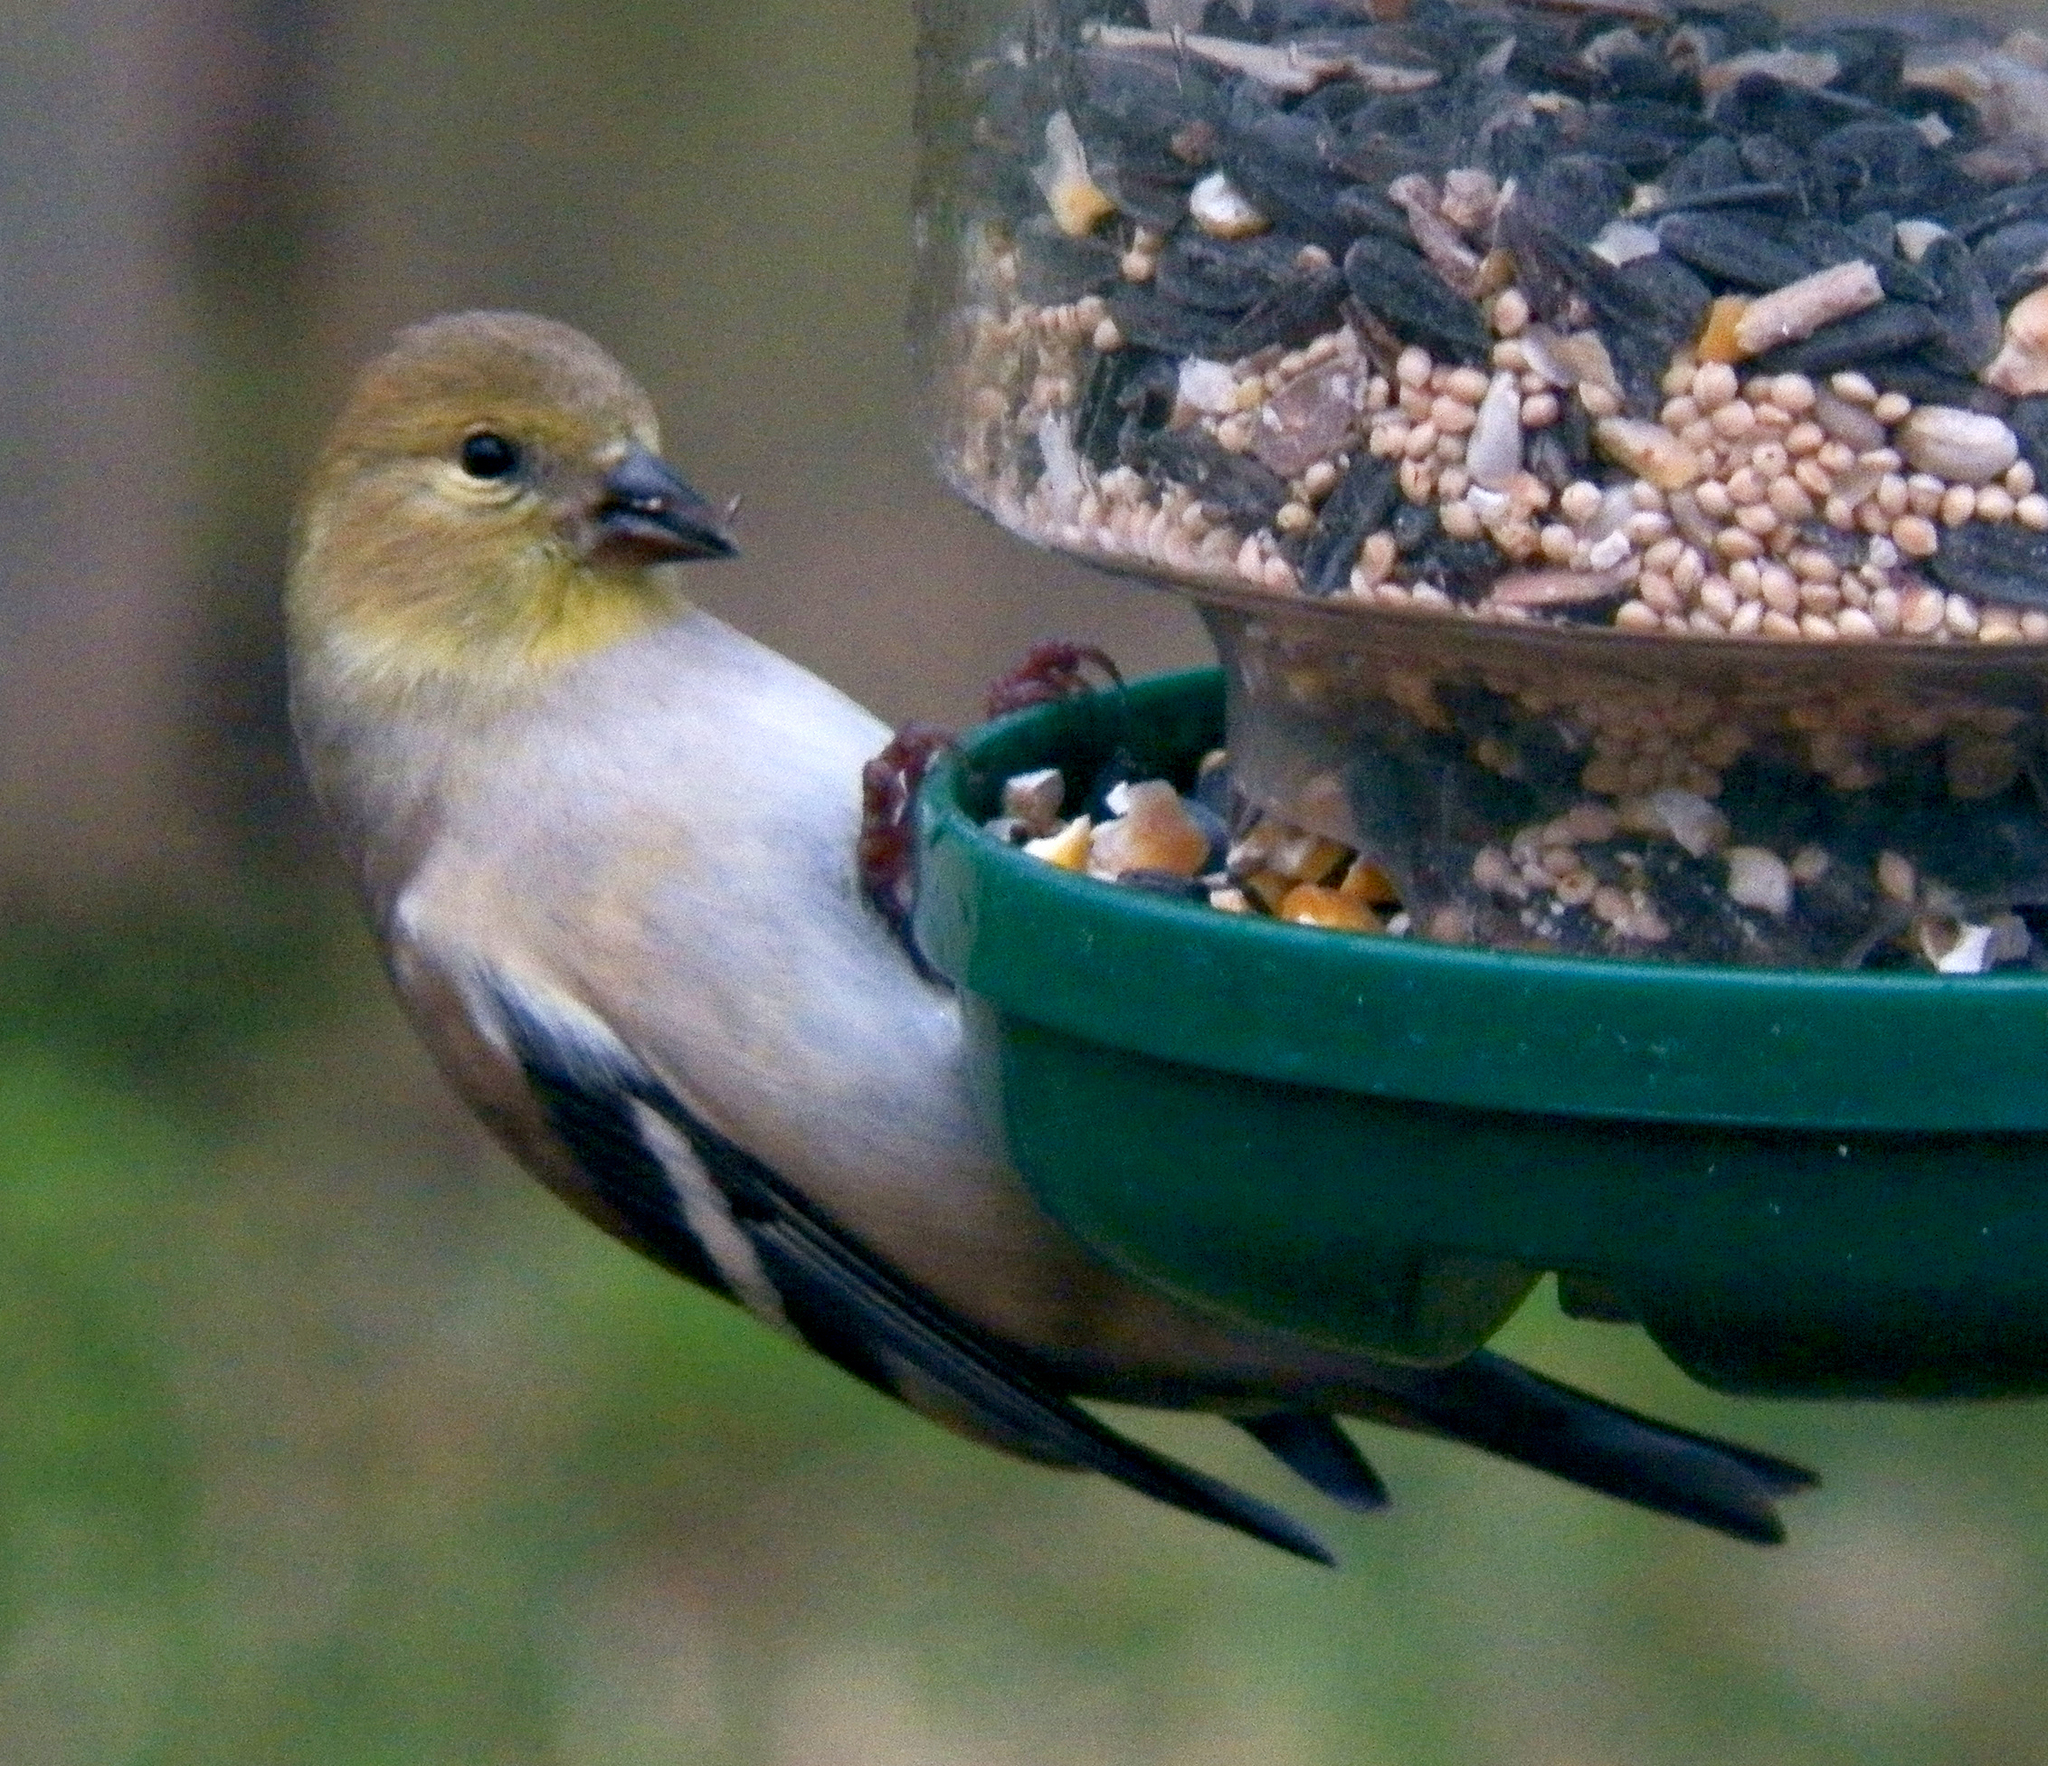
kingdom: Animalia
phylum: Chordata
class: Aves
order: Passeriformes
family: Fringillidae
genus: Spinus
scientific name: Spinus tristis
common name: American goldfinch
